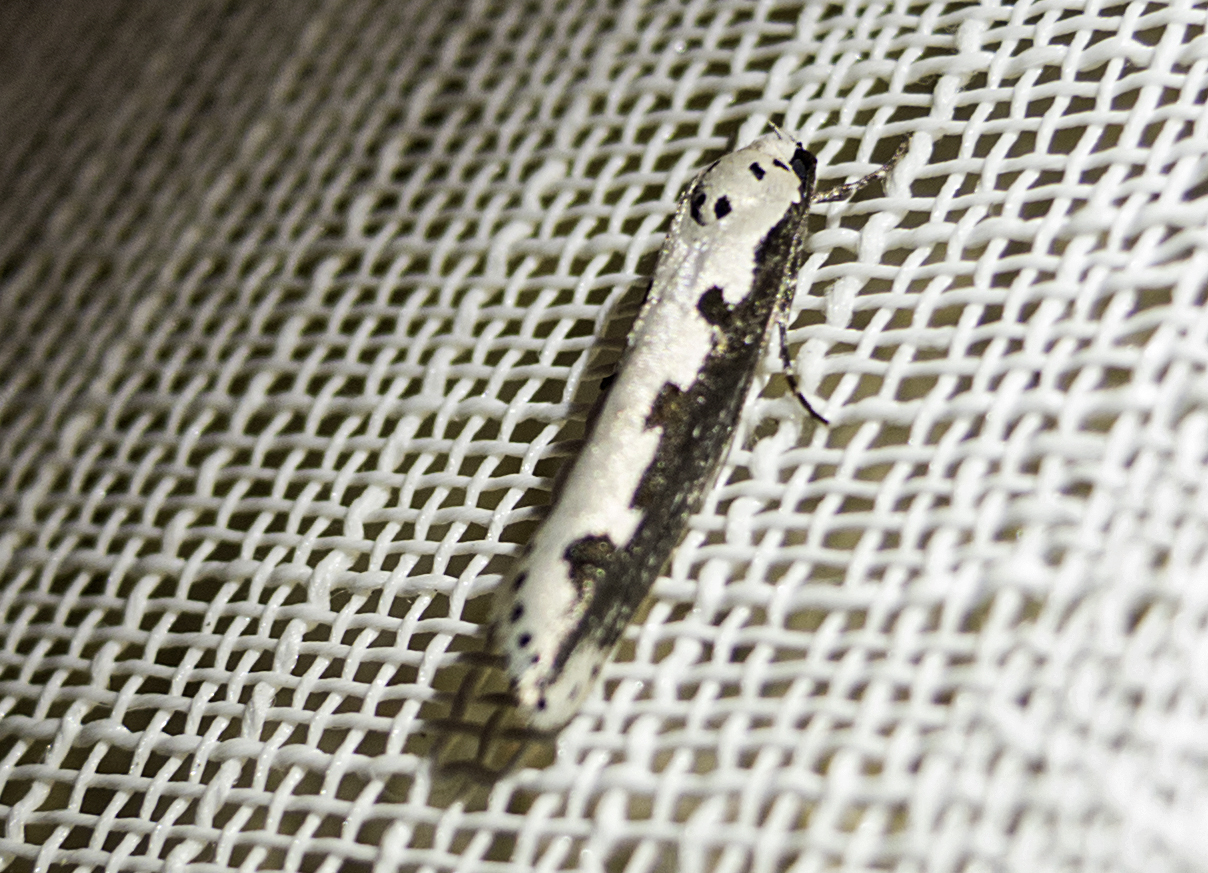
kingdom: Animalia
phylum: Arthropoda
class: Insecta
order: Lepidoptera
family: Ethmiidae
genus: Ethmia
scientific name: Ethmia bipunctella
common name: Bordered ermel
